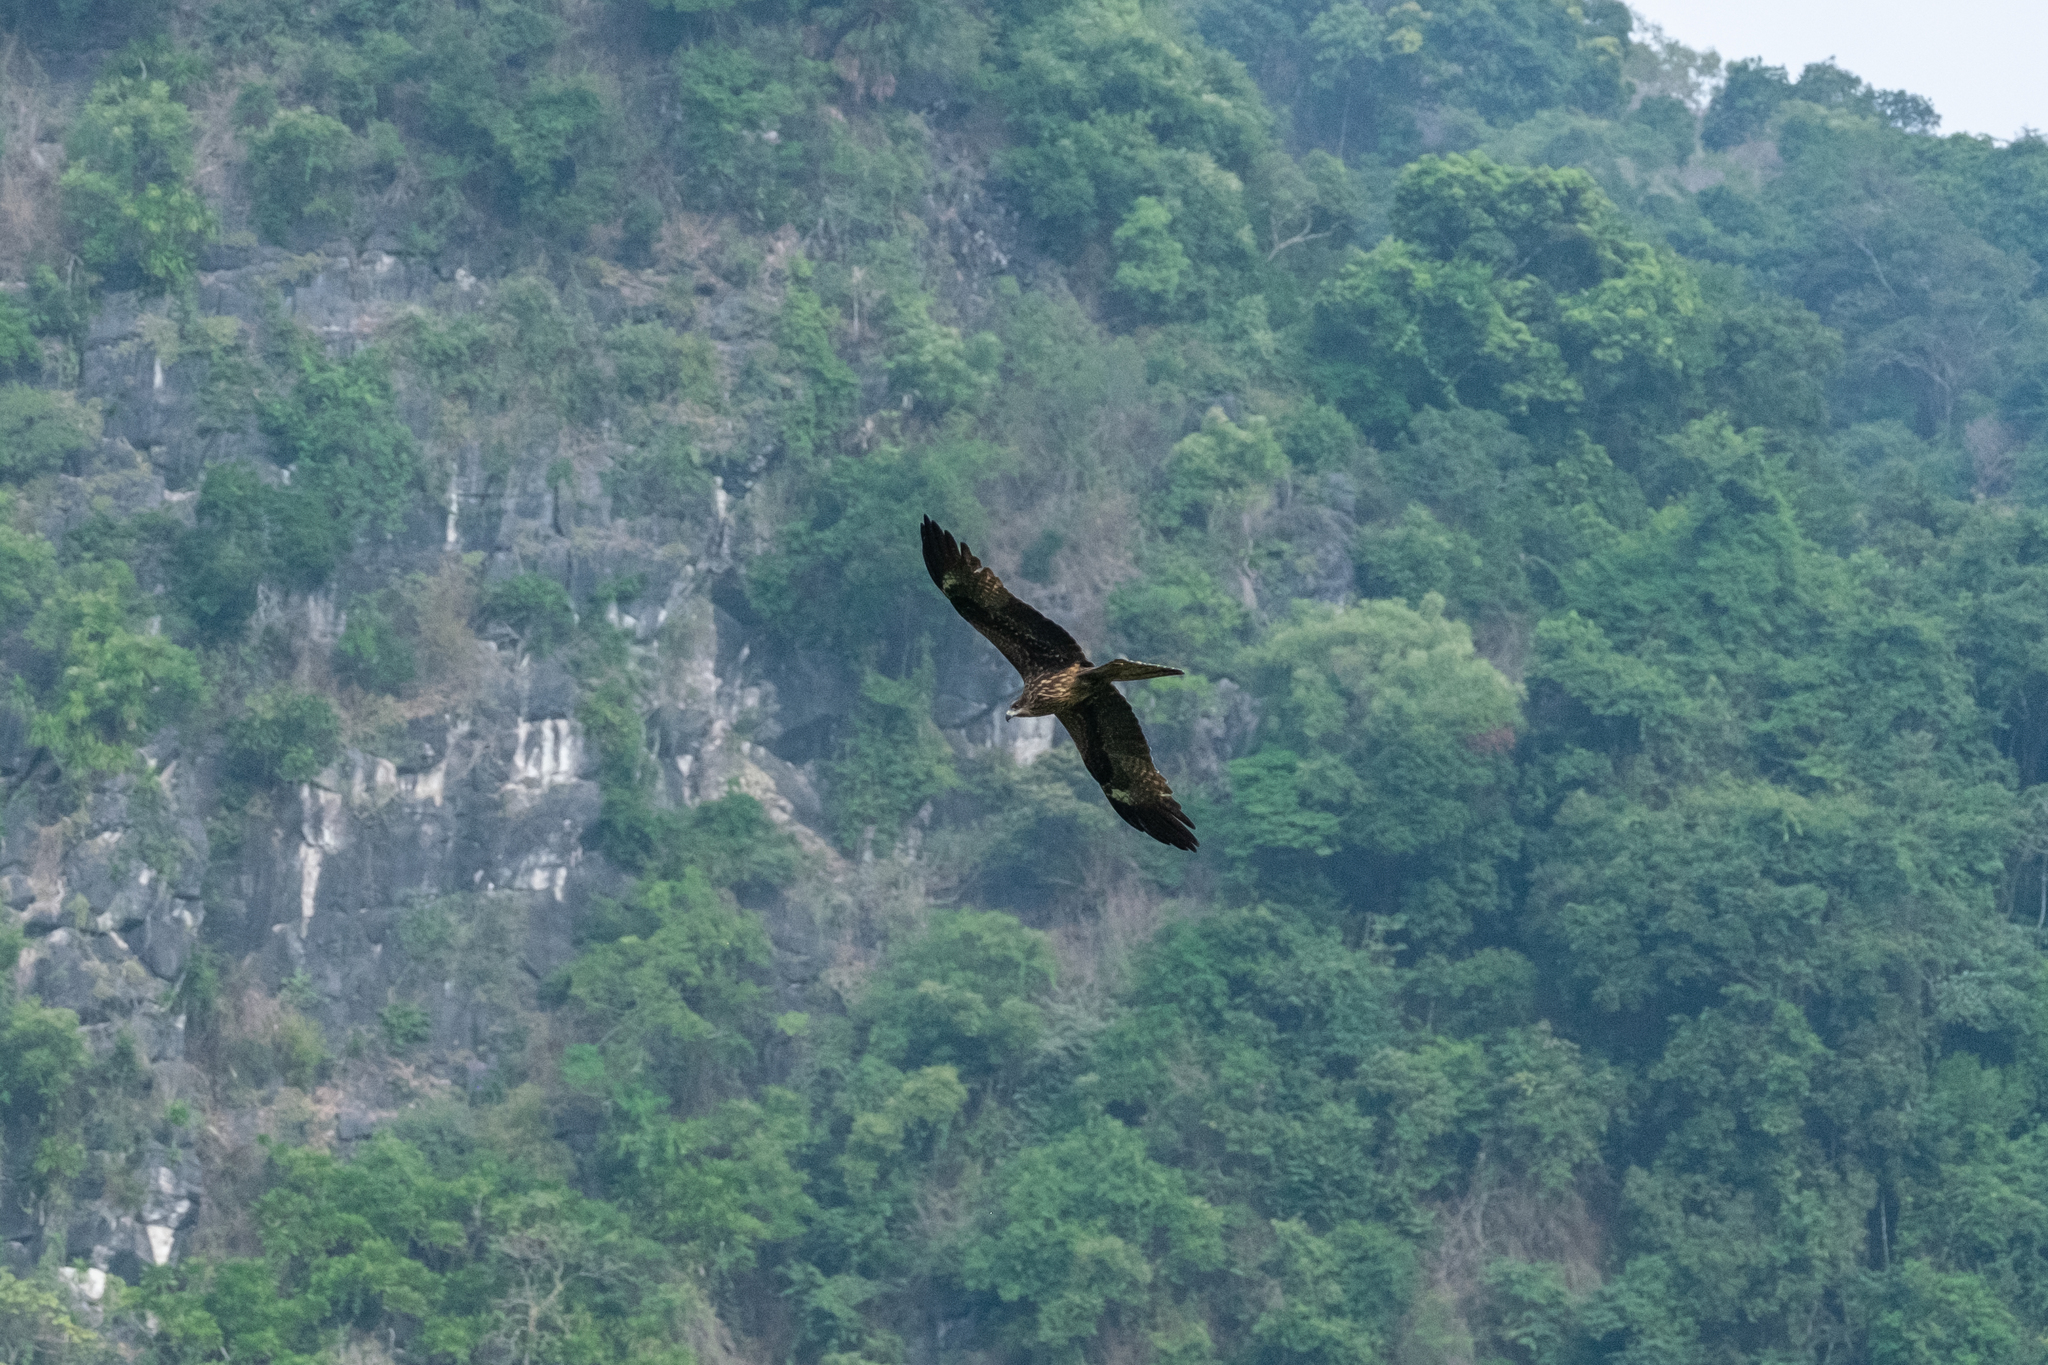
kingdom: Animalia
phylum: Chordata
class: Aves
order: Accipitriformes
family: Accipitridae
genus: Milvus
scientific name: Milvus migrans
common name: Black kite
